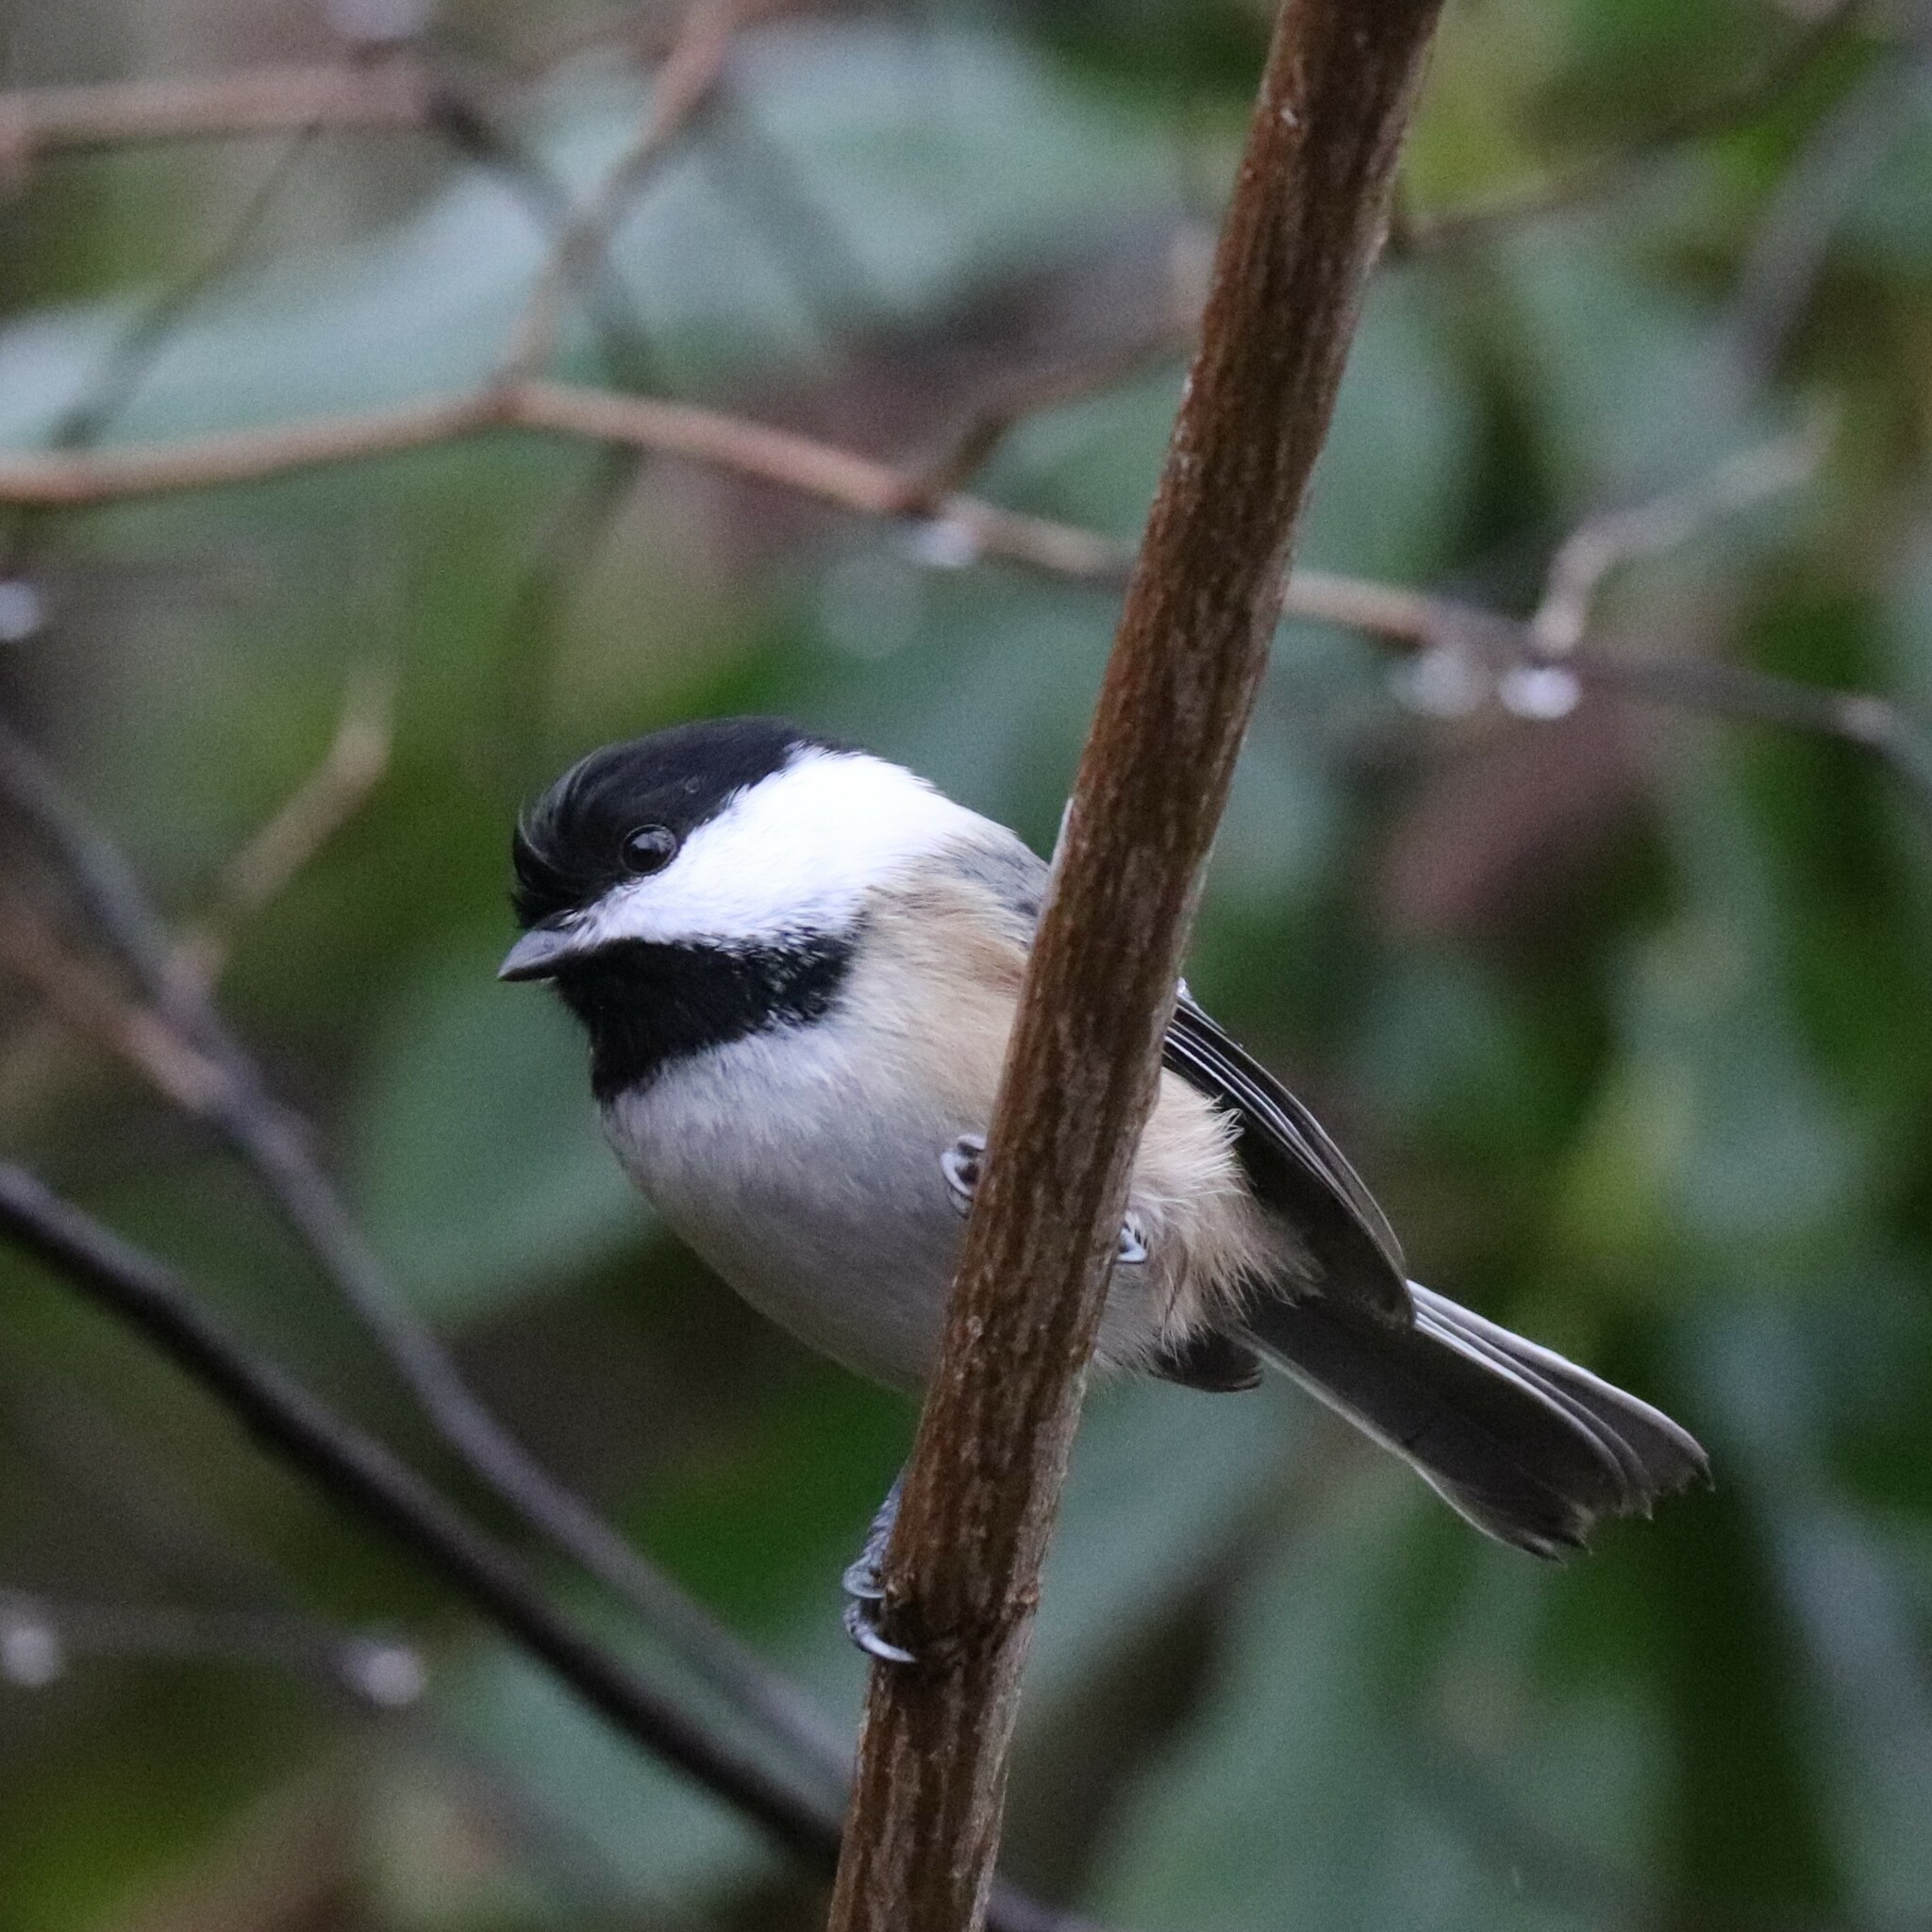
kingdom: Animalia
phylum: Chordata
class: Aves
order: Passeriformes
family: Paridae
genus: Poecile
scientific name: Poecile atricapillus
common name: Black-capped chickadee
